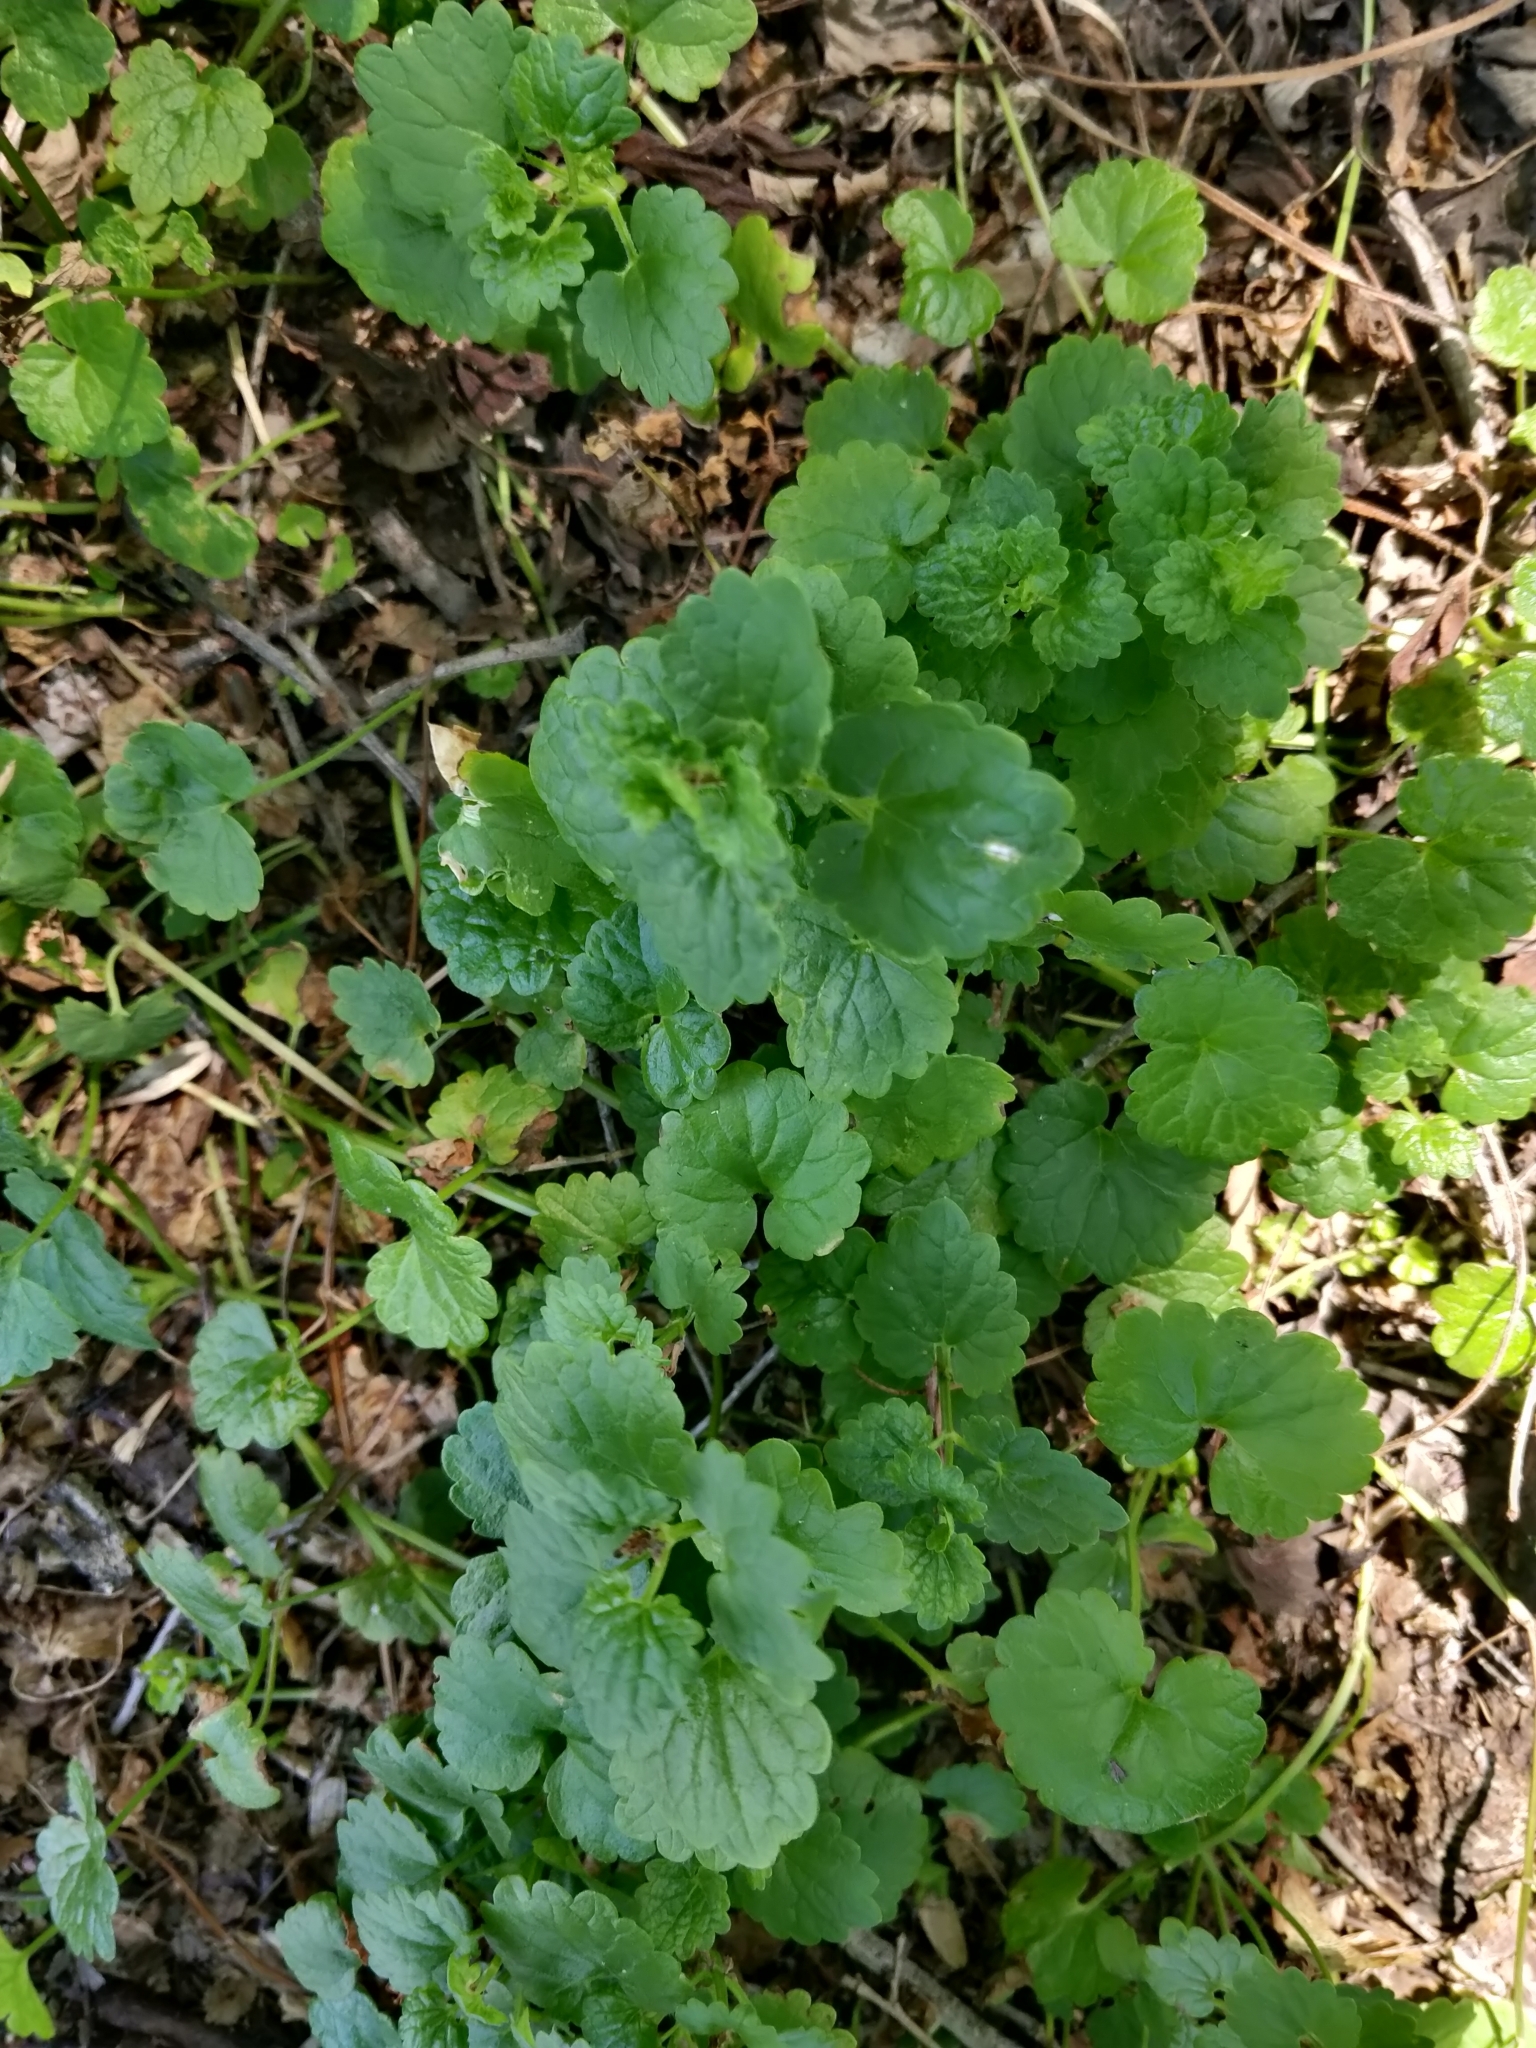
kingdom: Plantae
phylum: Tracheophyta
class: Magnoliopsida
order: Lamiales
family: Lamiaceae
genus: Glechoma
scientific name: Glechoma hederacea
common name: Ground ivy
